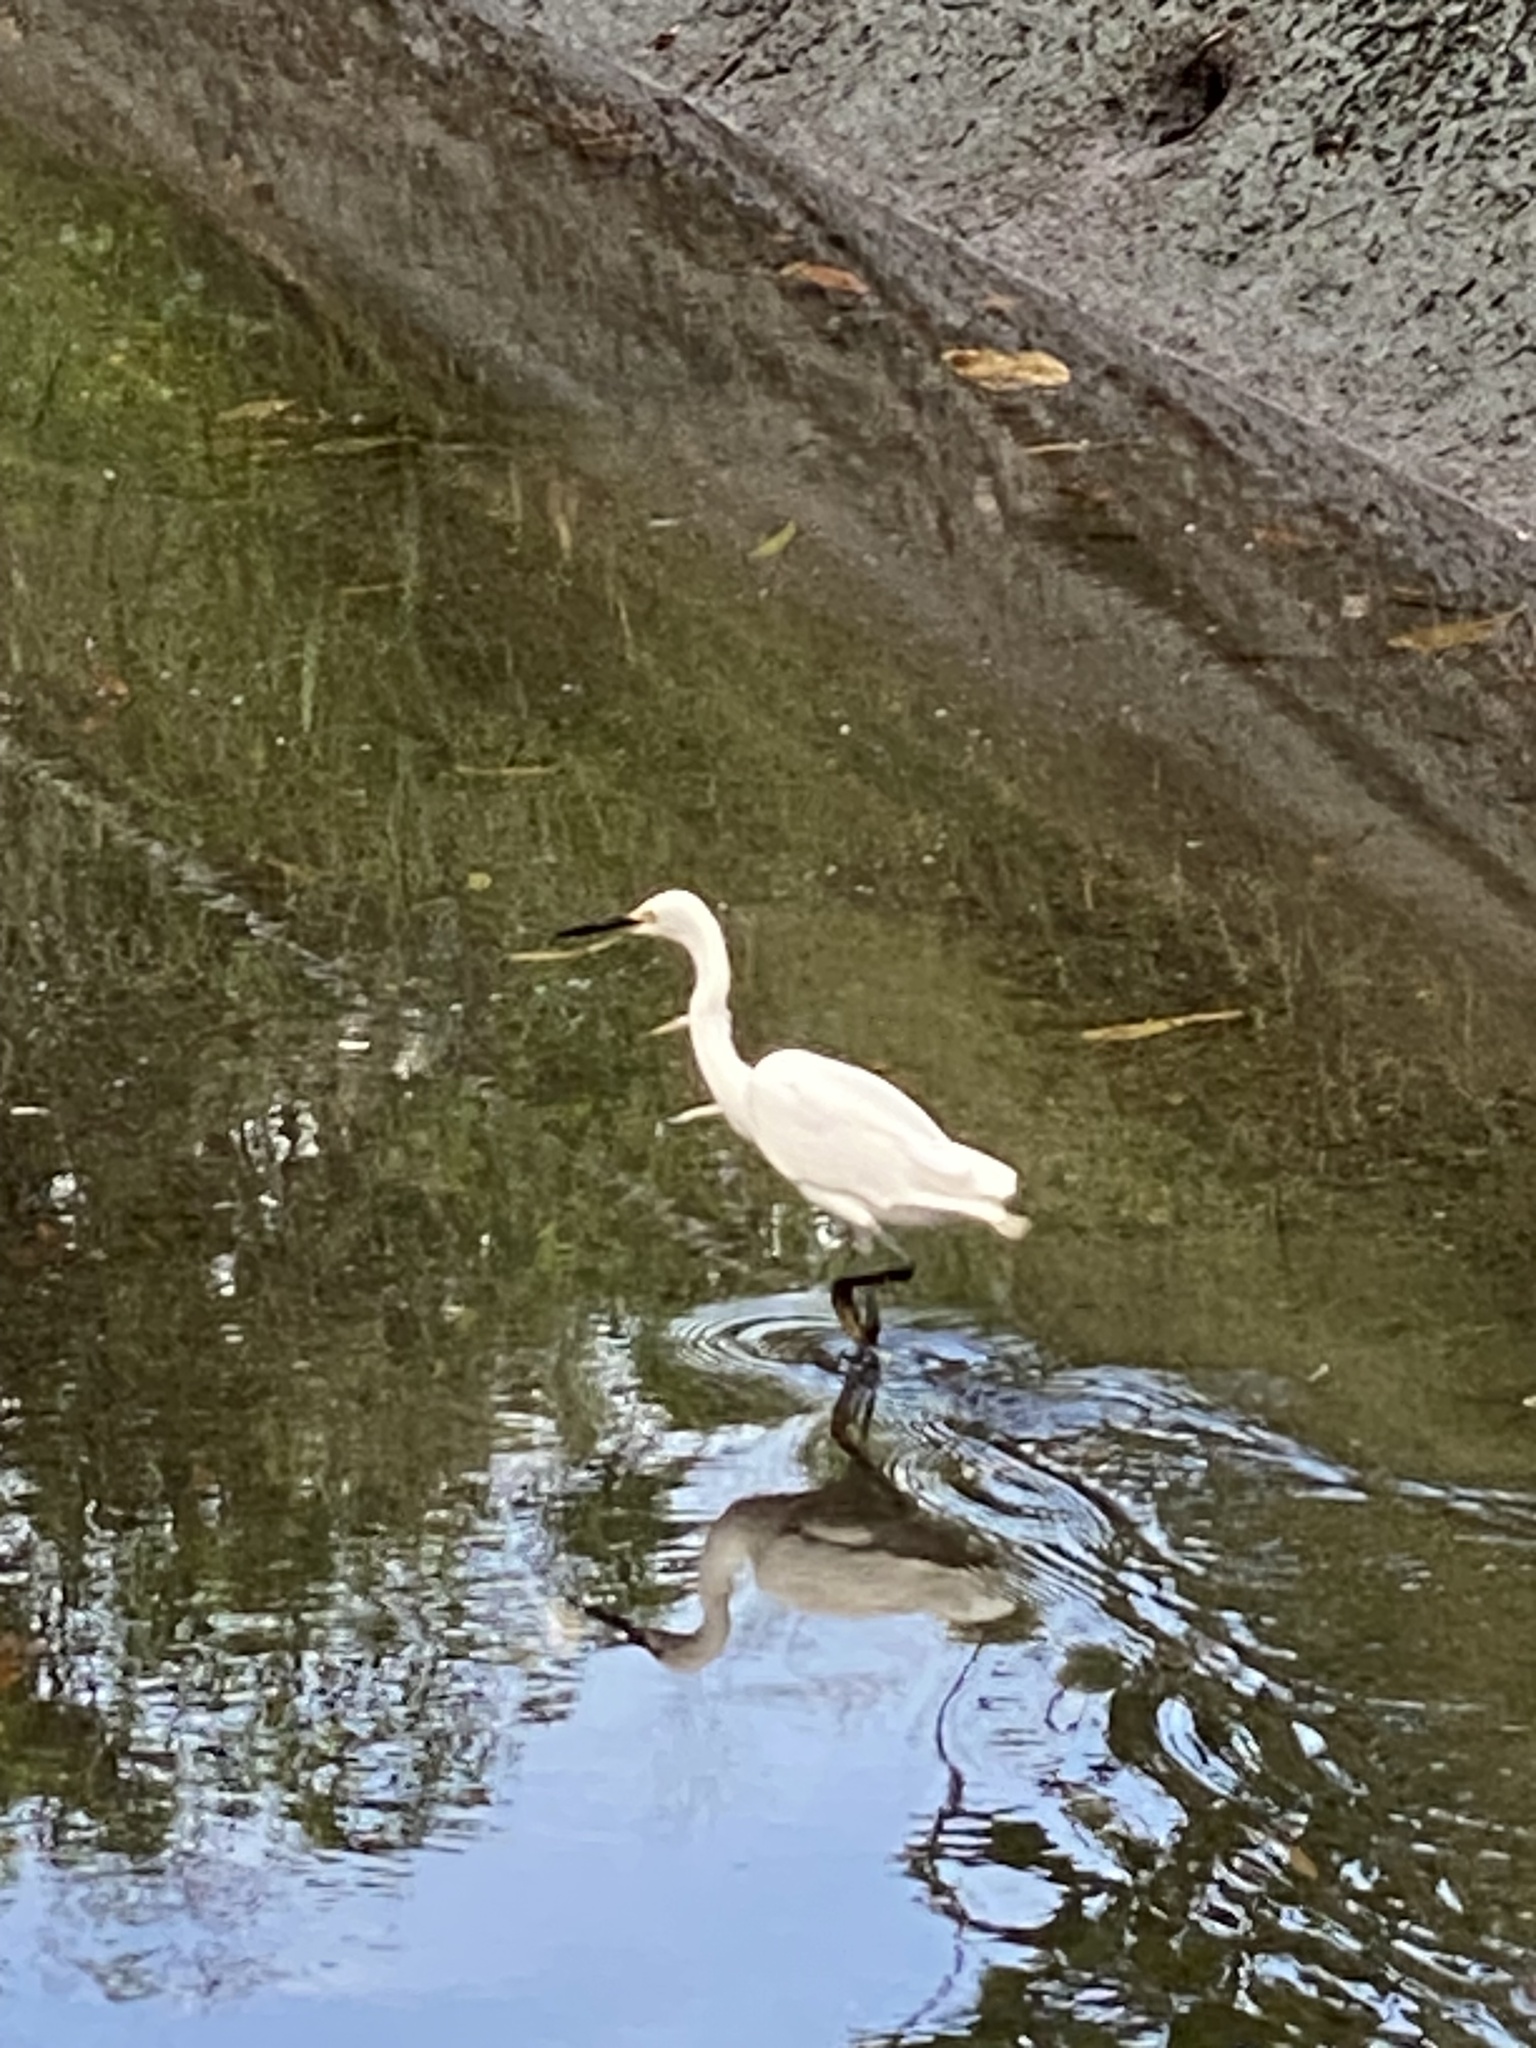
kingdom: Animalia
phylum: Chordata
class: Aves
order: Pelecaniformes
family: Ardeidae
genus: Egretta
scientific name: Egretta garzetta
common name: Little egret
